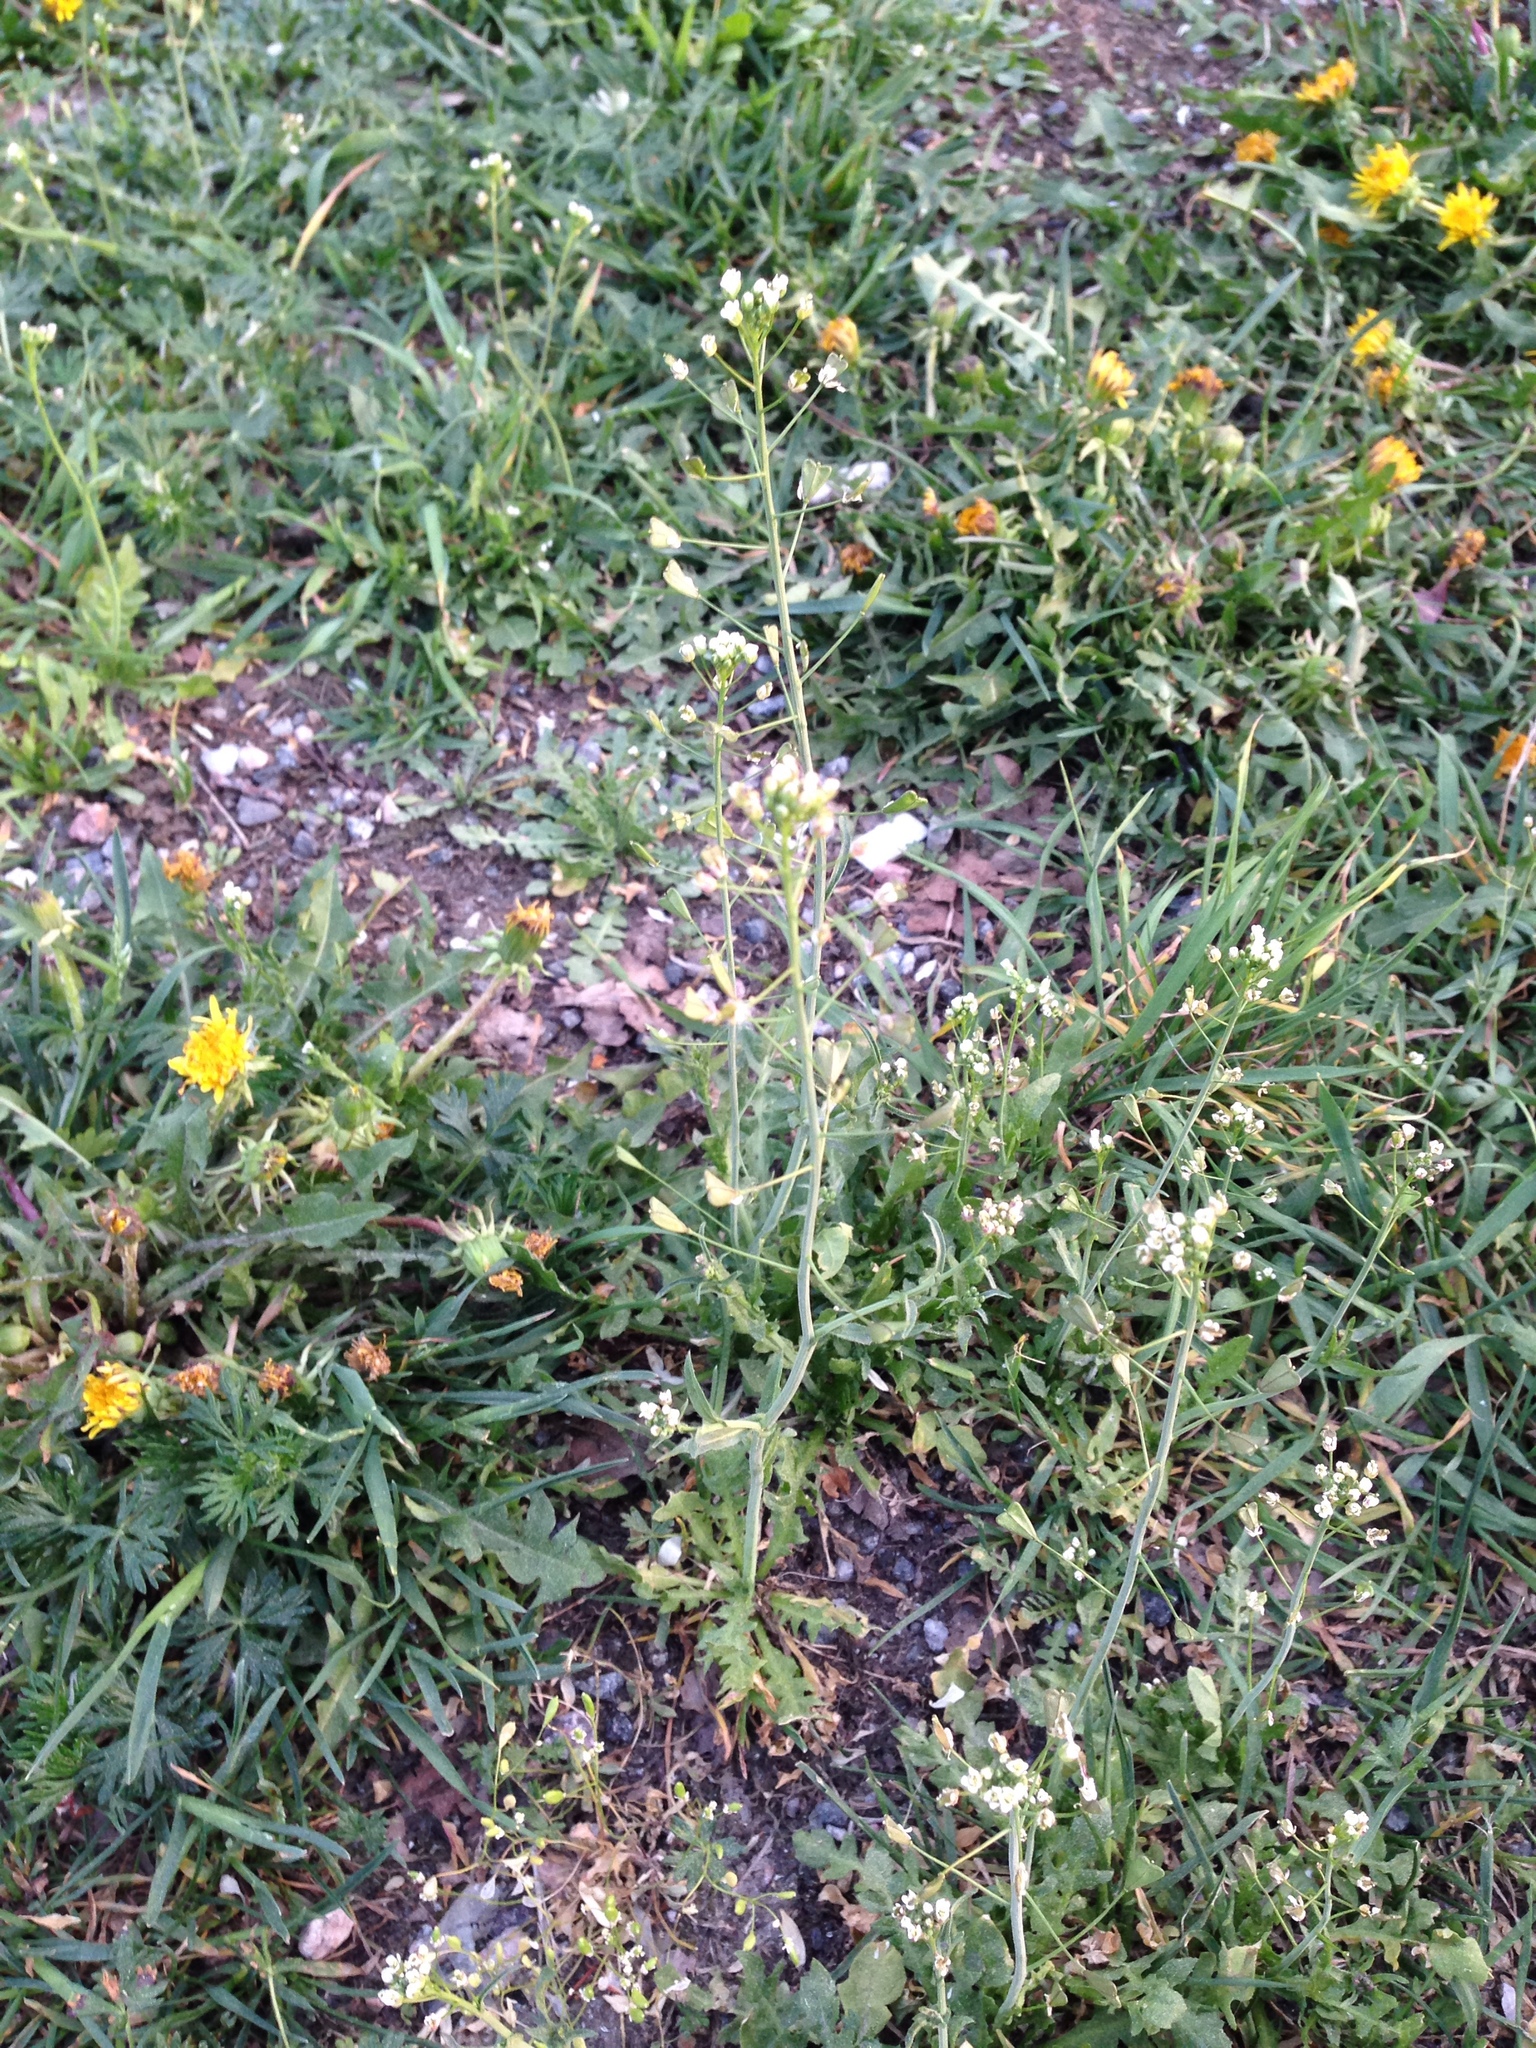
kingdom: Plantae
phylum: Tracheophyta
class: Magnoliopsida
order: Brassicales
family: Brassicaceae
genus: Capsella
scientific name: Capsella bursa-pastoris
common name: Shepherd's purse
